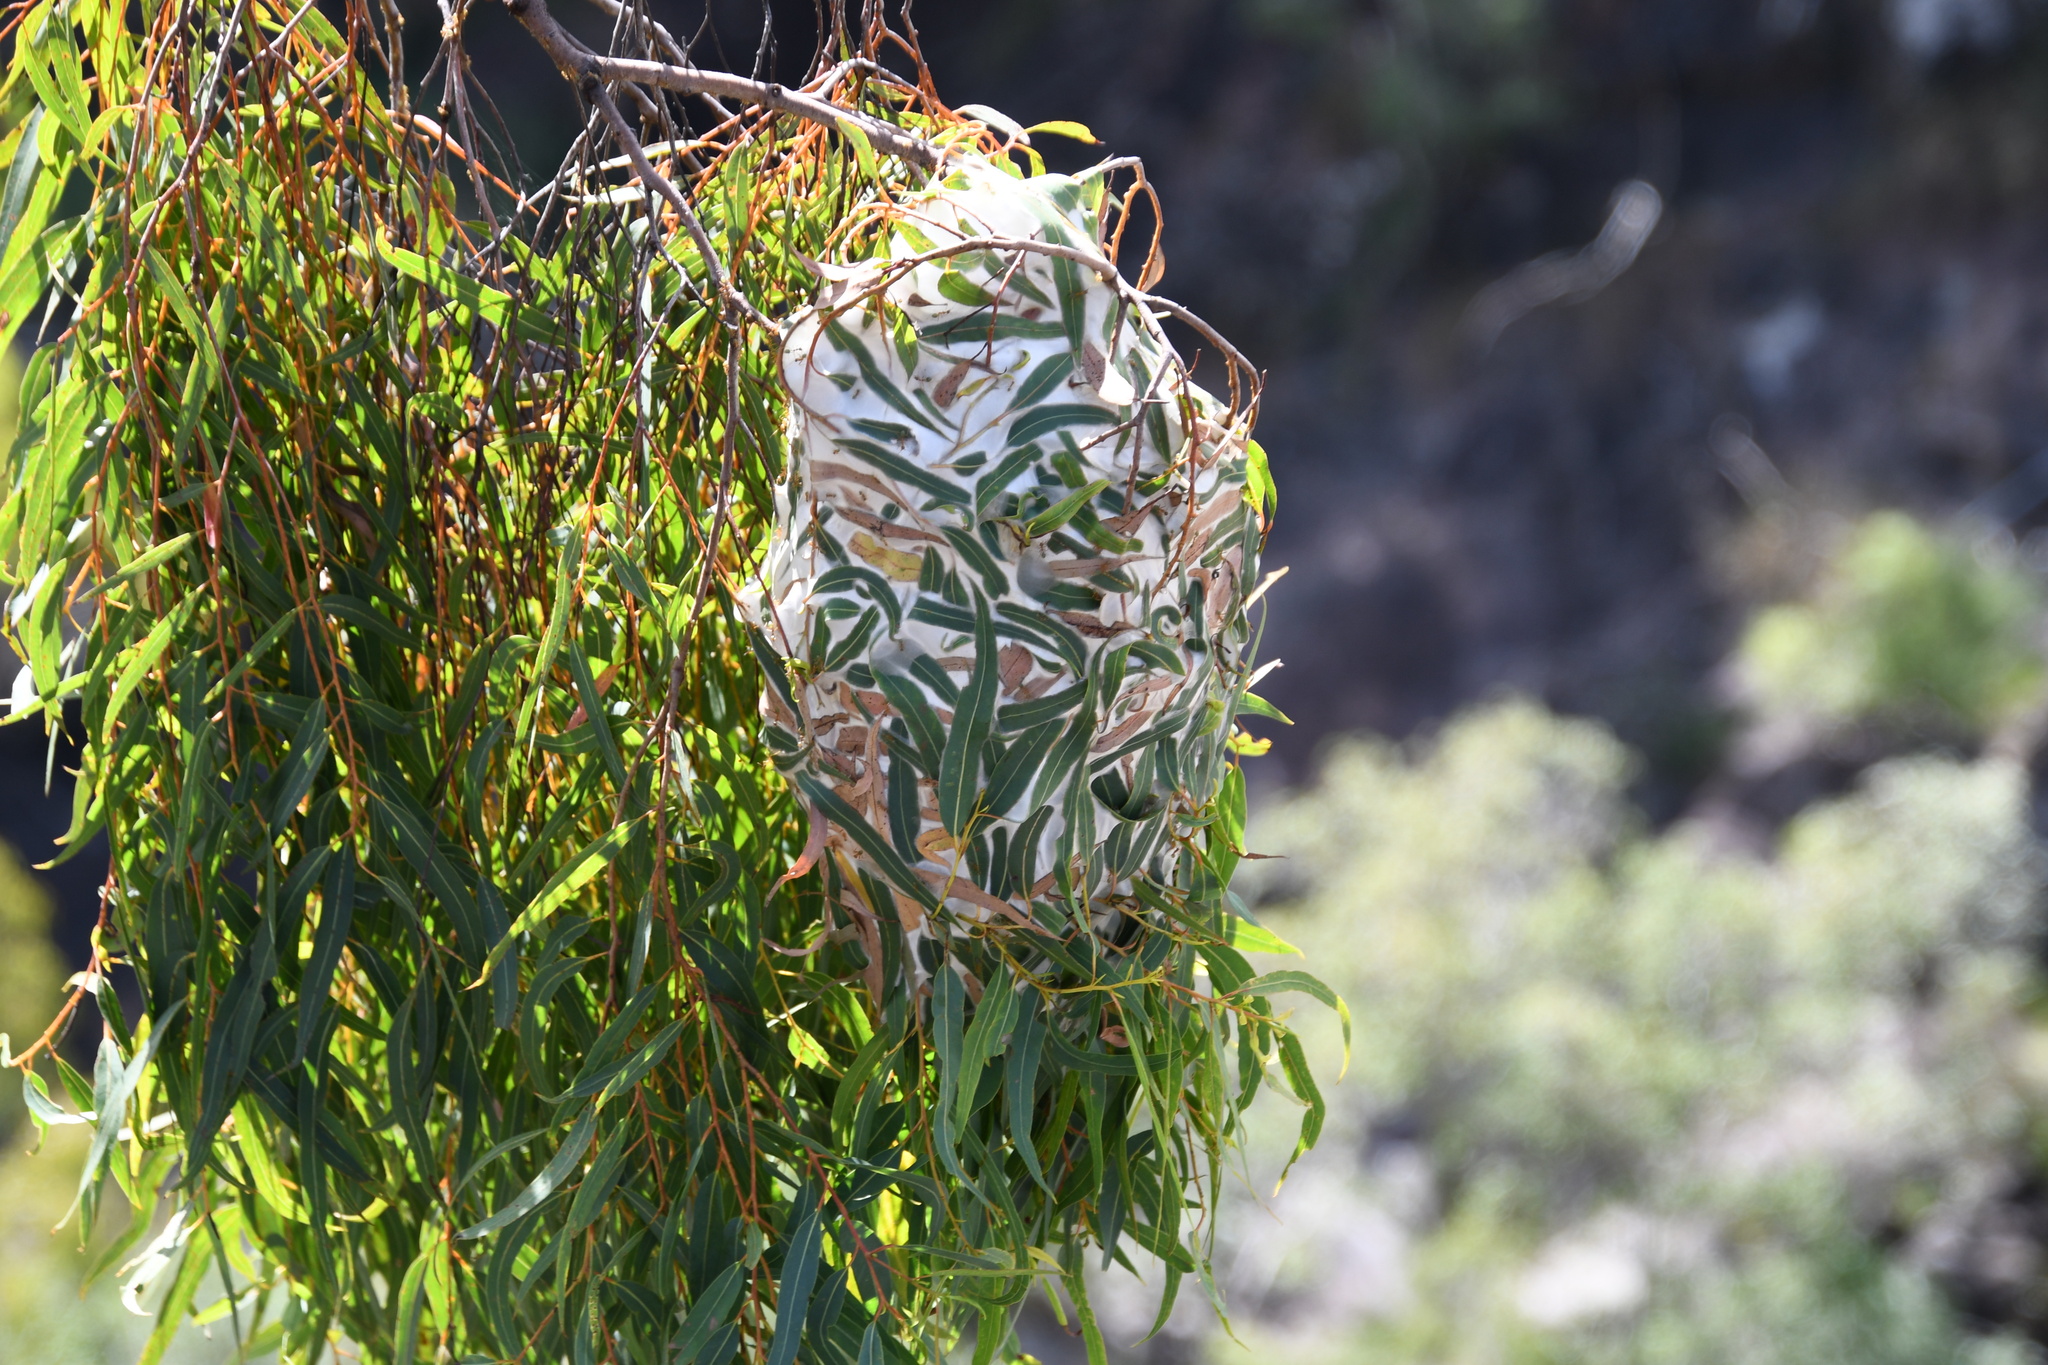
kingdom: Animalia
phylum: Arthropoda
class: Insecta
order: Hymenoptera
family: Formicidae
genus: Oecophylla
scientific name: Oecophylla smaragdina
